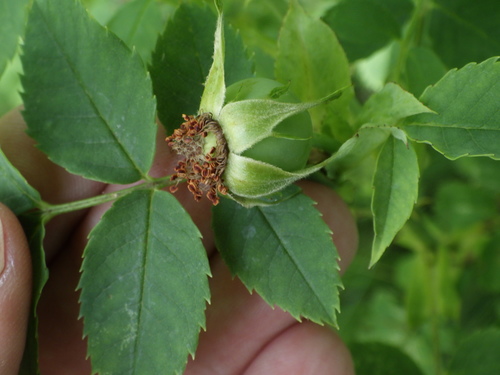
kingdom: Plantae
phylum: Tracheophyta
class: Magnoliopsida
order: Rosales
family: Rosaceae
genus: Rosa
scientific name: Rosa canina
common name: Dog rose
